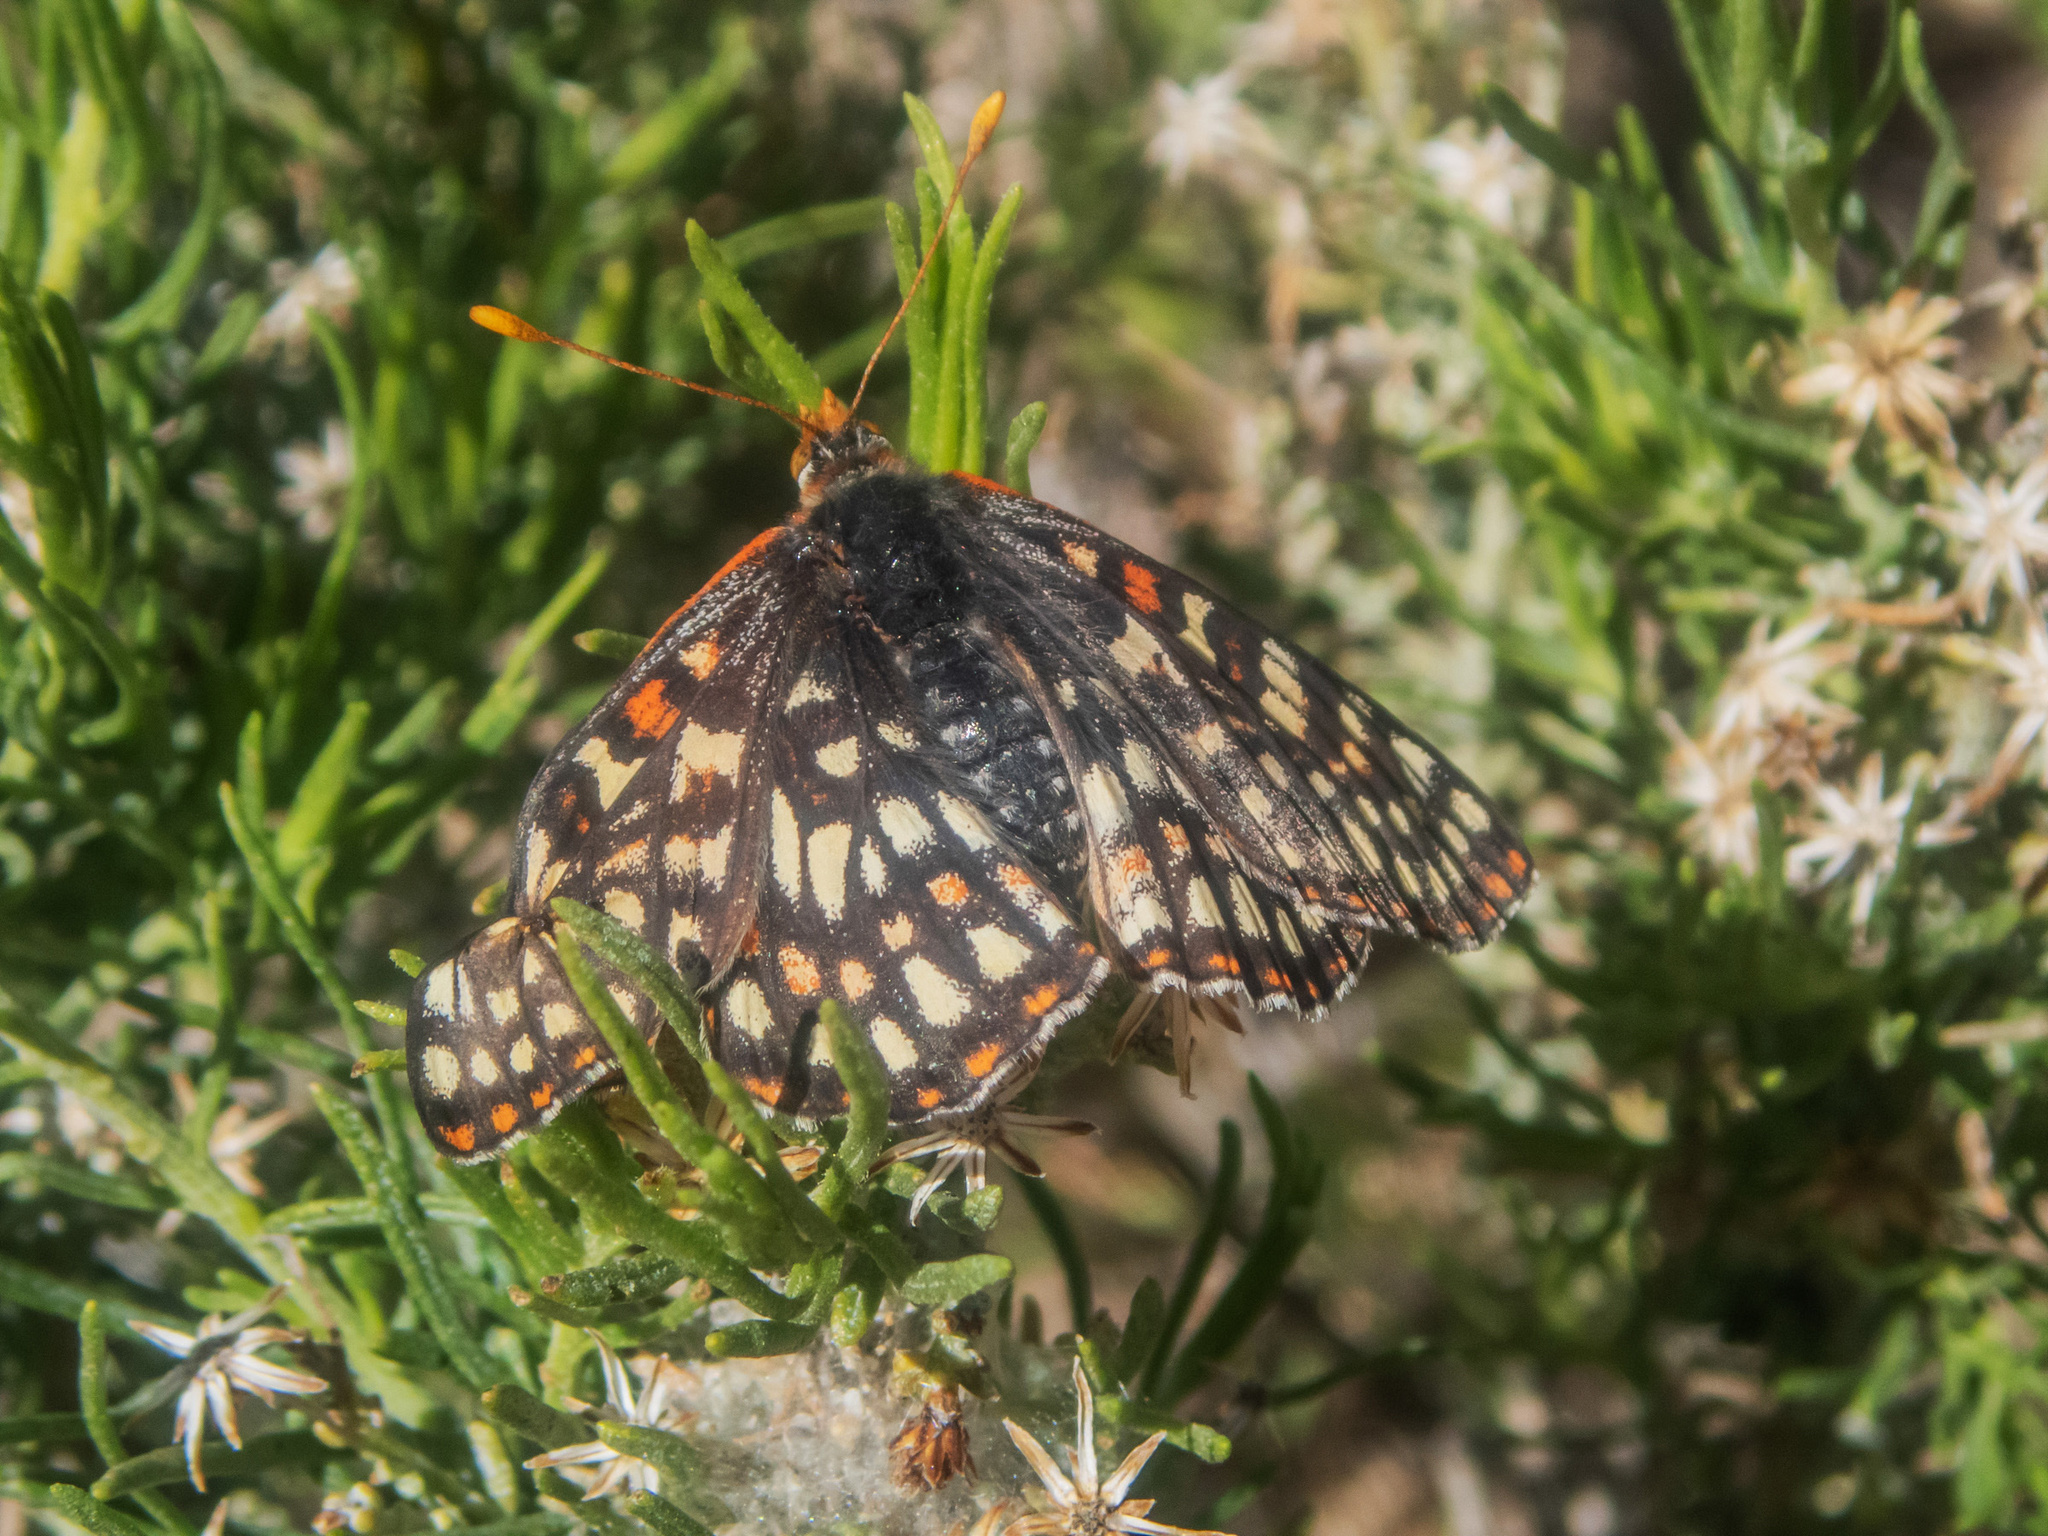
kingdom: Animalia
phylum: Arthropoda
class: Insecta
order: Lepidoptera
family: Nymphalidae
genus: Occidryas
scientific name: Occidryas chalcedona
